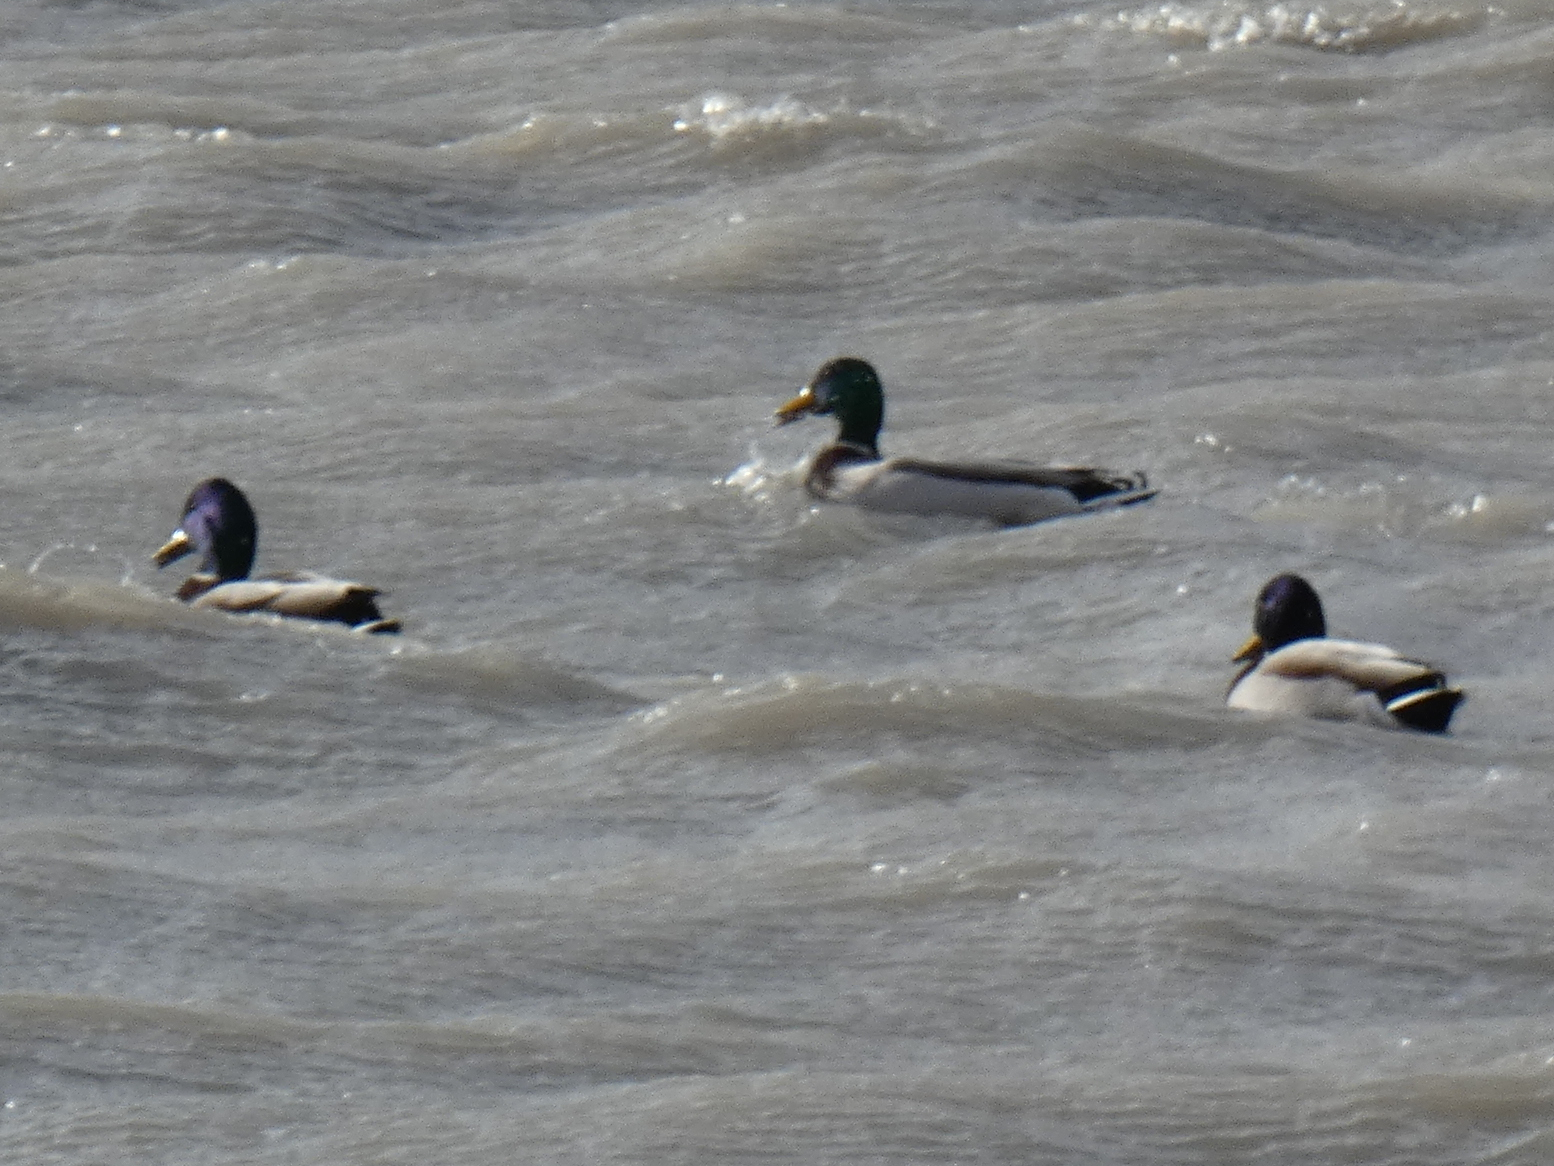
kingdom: Animalia
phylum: Chordata
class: Aves
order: Anseriformes
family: Anatidae
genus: Anas
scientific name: Anas platyrhynchos
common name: Mallard
